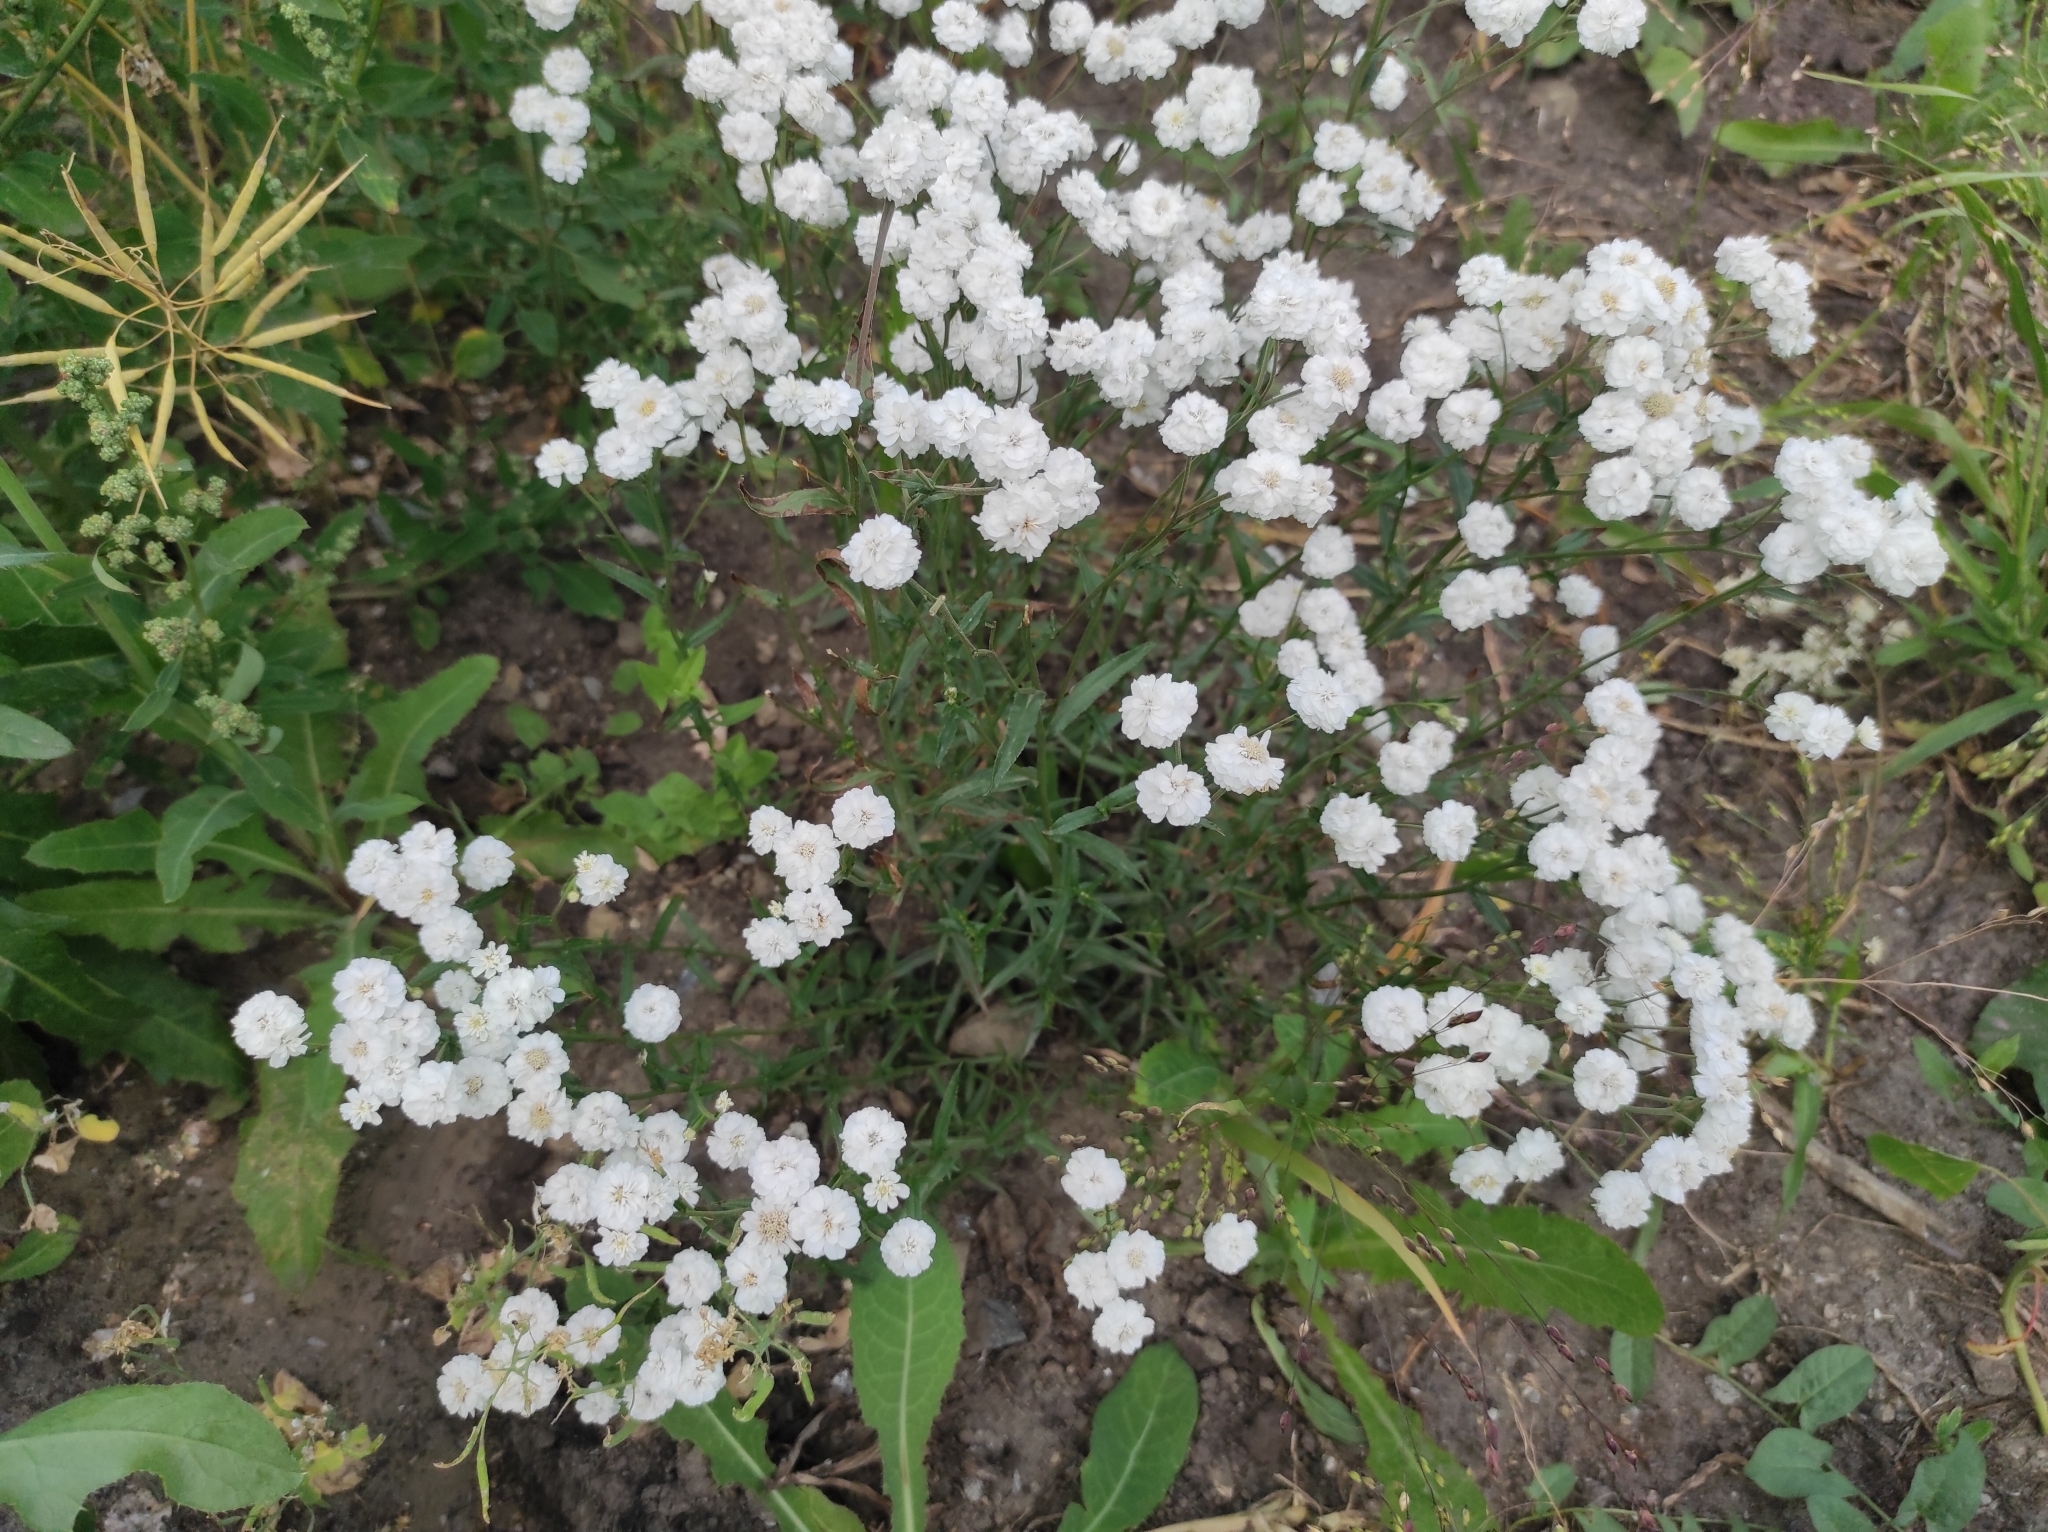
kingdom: Plantae
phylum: Tracheophyta
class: Magnoliopsida
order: Asterales
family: Asteraceae
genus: Achillea
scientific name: Achillea ptarmica
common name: Sneezeweed
